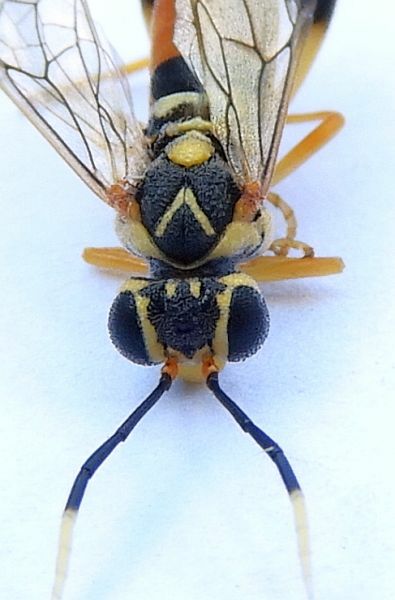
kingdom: Animalia
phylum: Arthropoda
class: Insecta
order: Hymenoptera
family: Tenthredinidae
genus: Macrophya
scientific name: Macrophya varia
